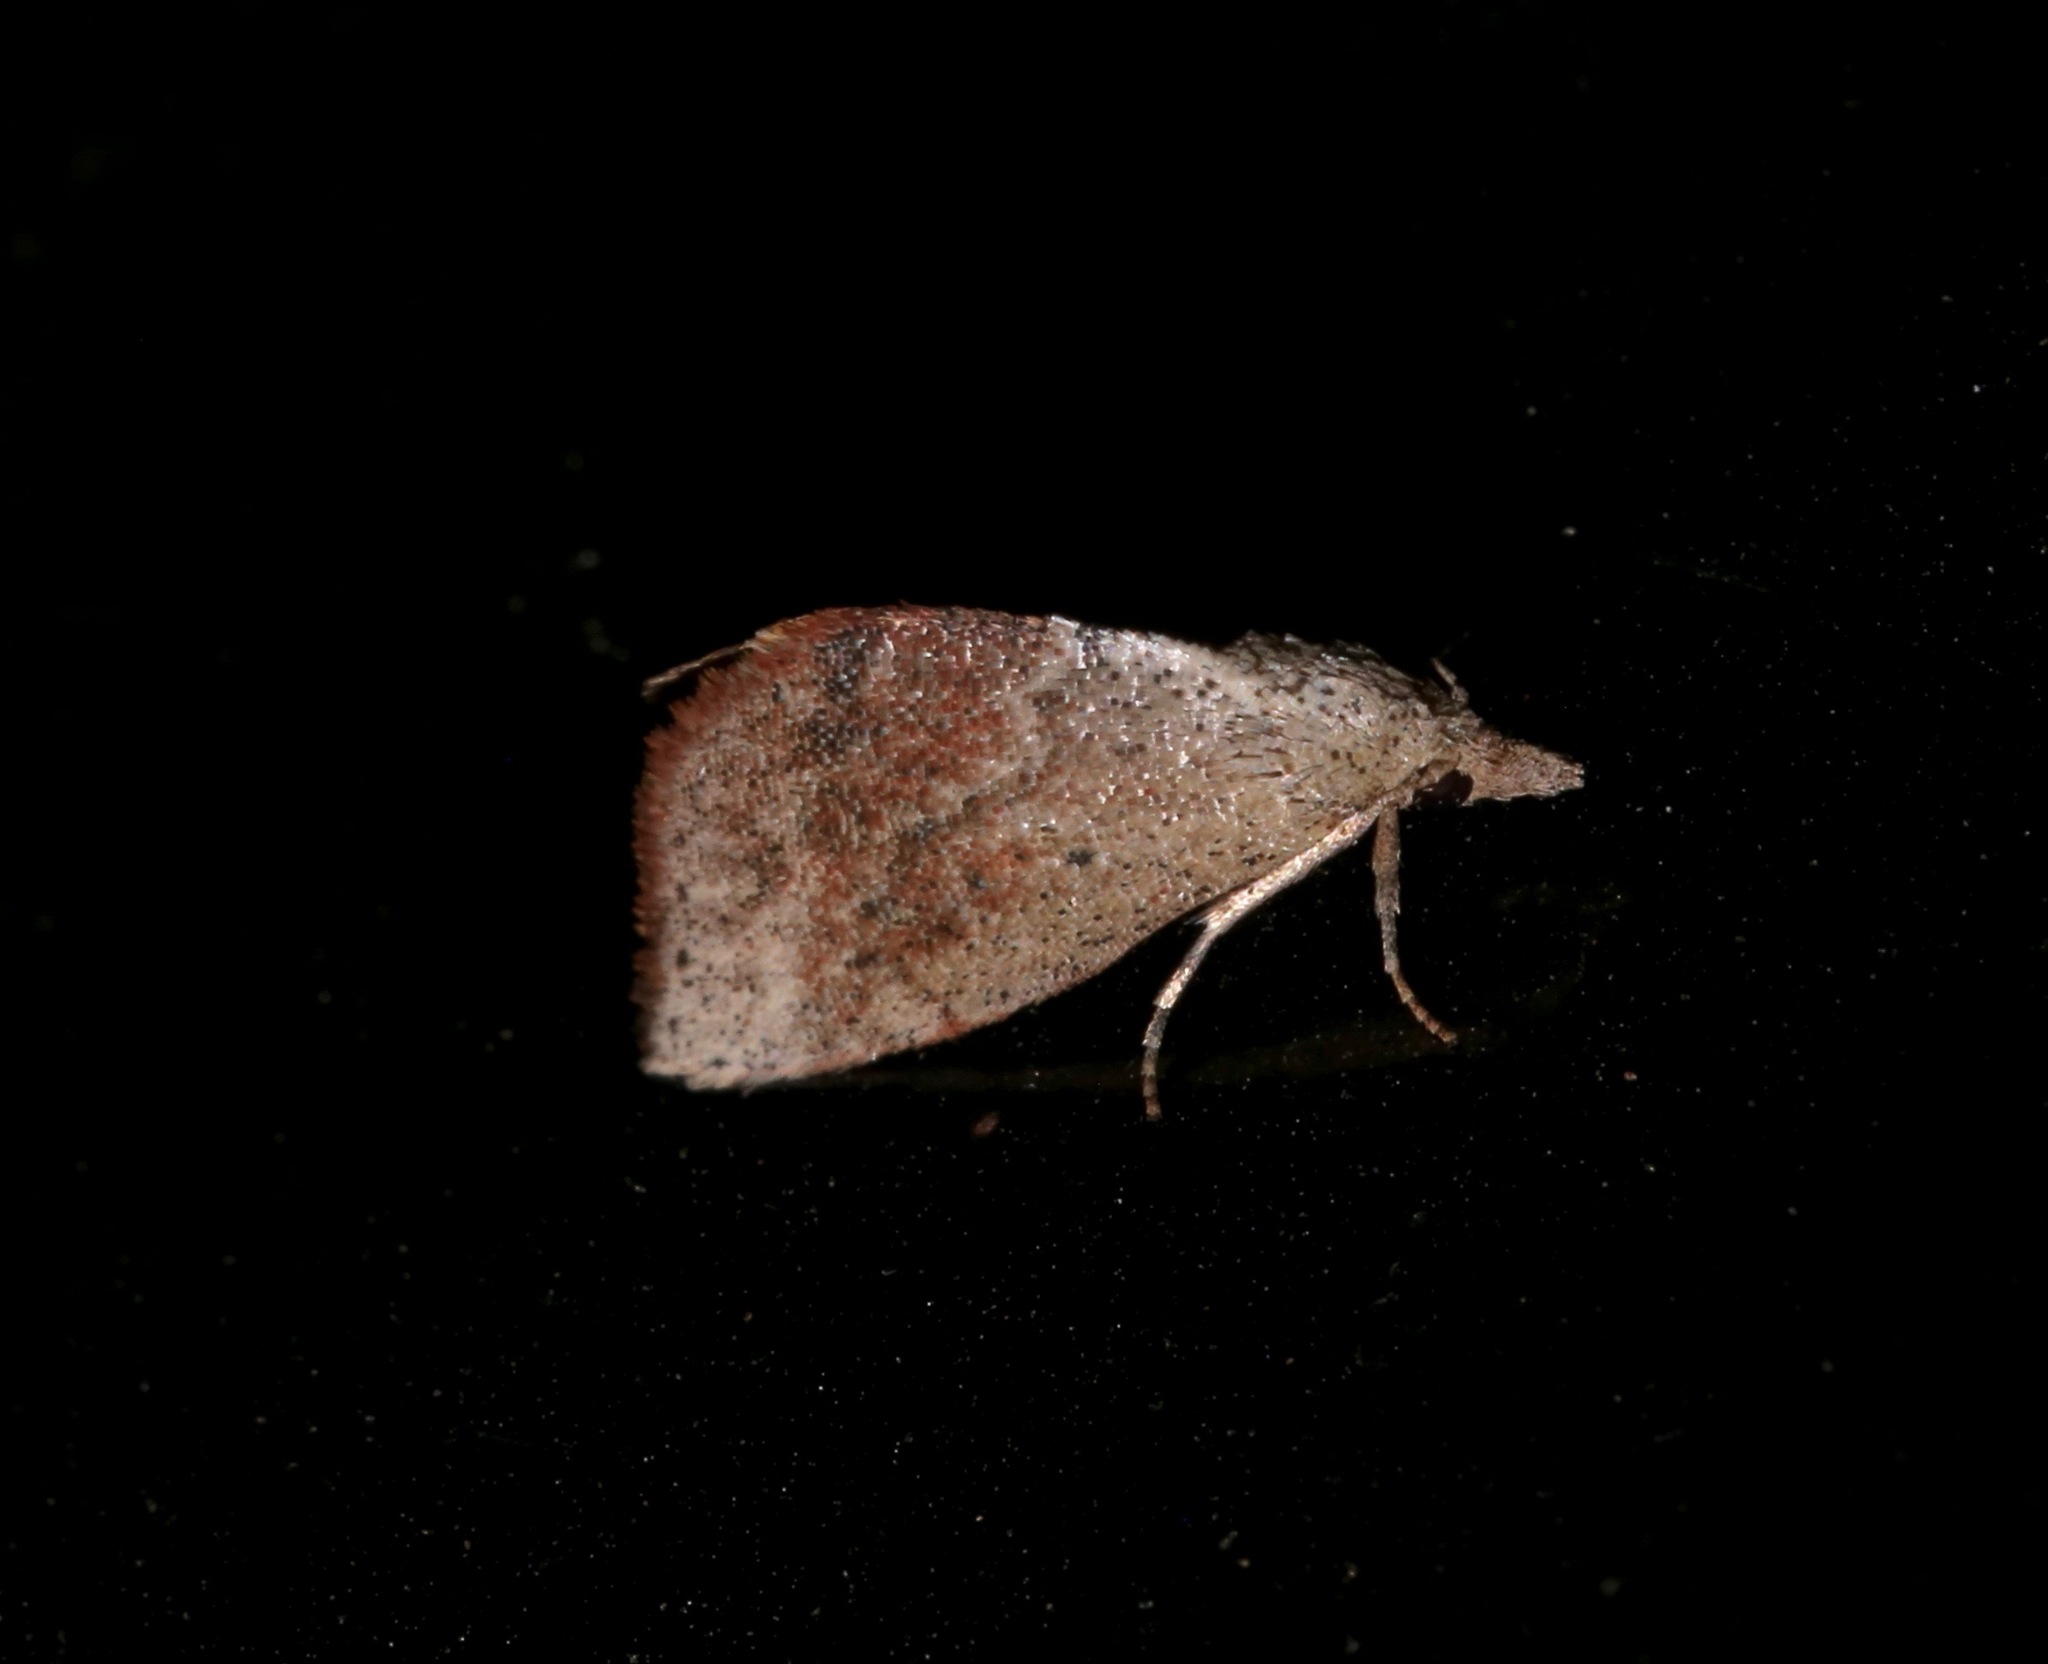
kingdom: Animalia
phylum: Arthropoda
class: Insecta
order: Lepidoptera
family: Noctuidae
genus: Proroblemma
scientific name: Proroblemma testa
